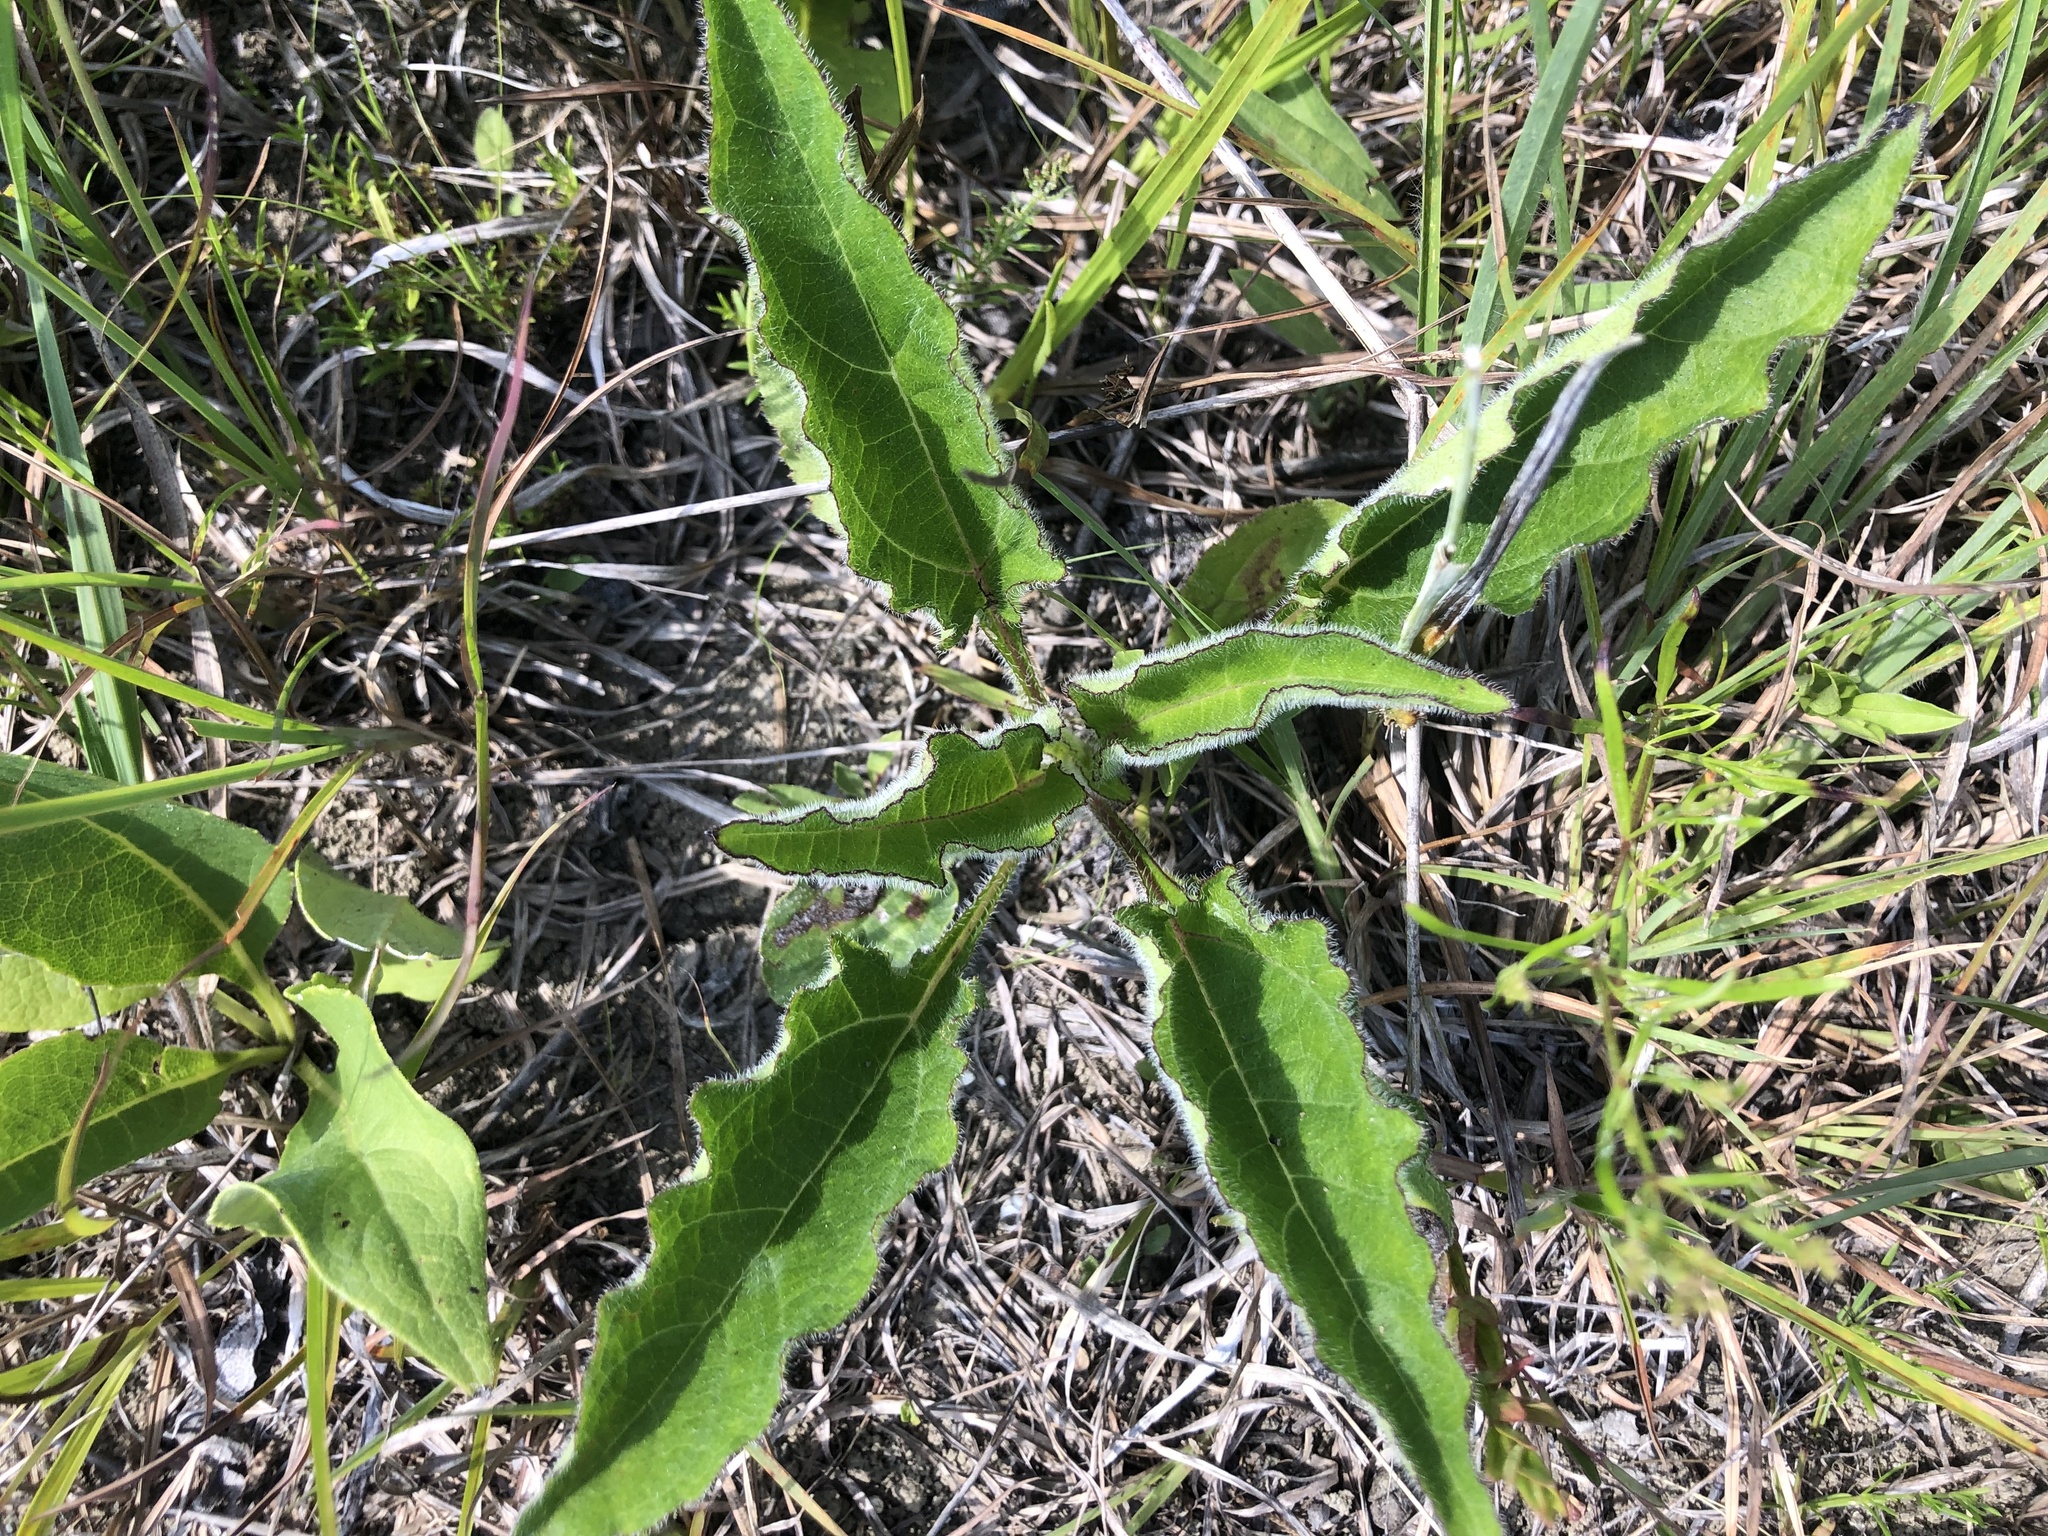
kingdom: Plantae
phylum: Tracheophyta
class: Magnoliopsida
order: Asterales
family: Asteraceae
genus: Helianthus
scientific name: Helianthus atrorubens
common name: Dark-eyed sunflower
